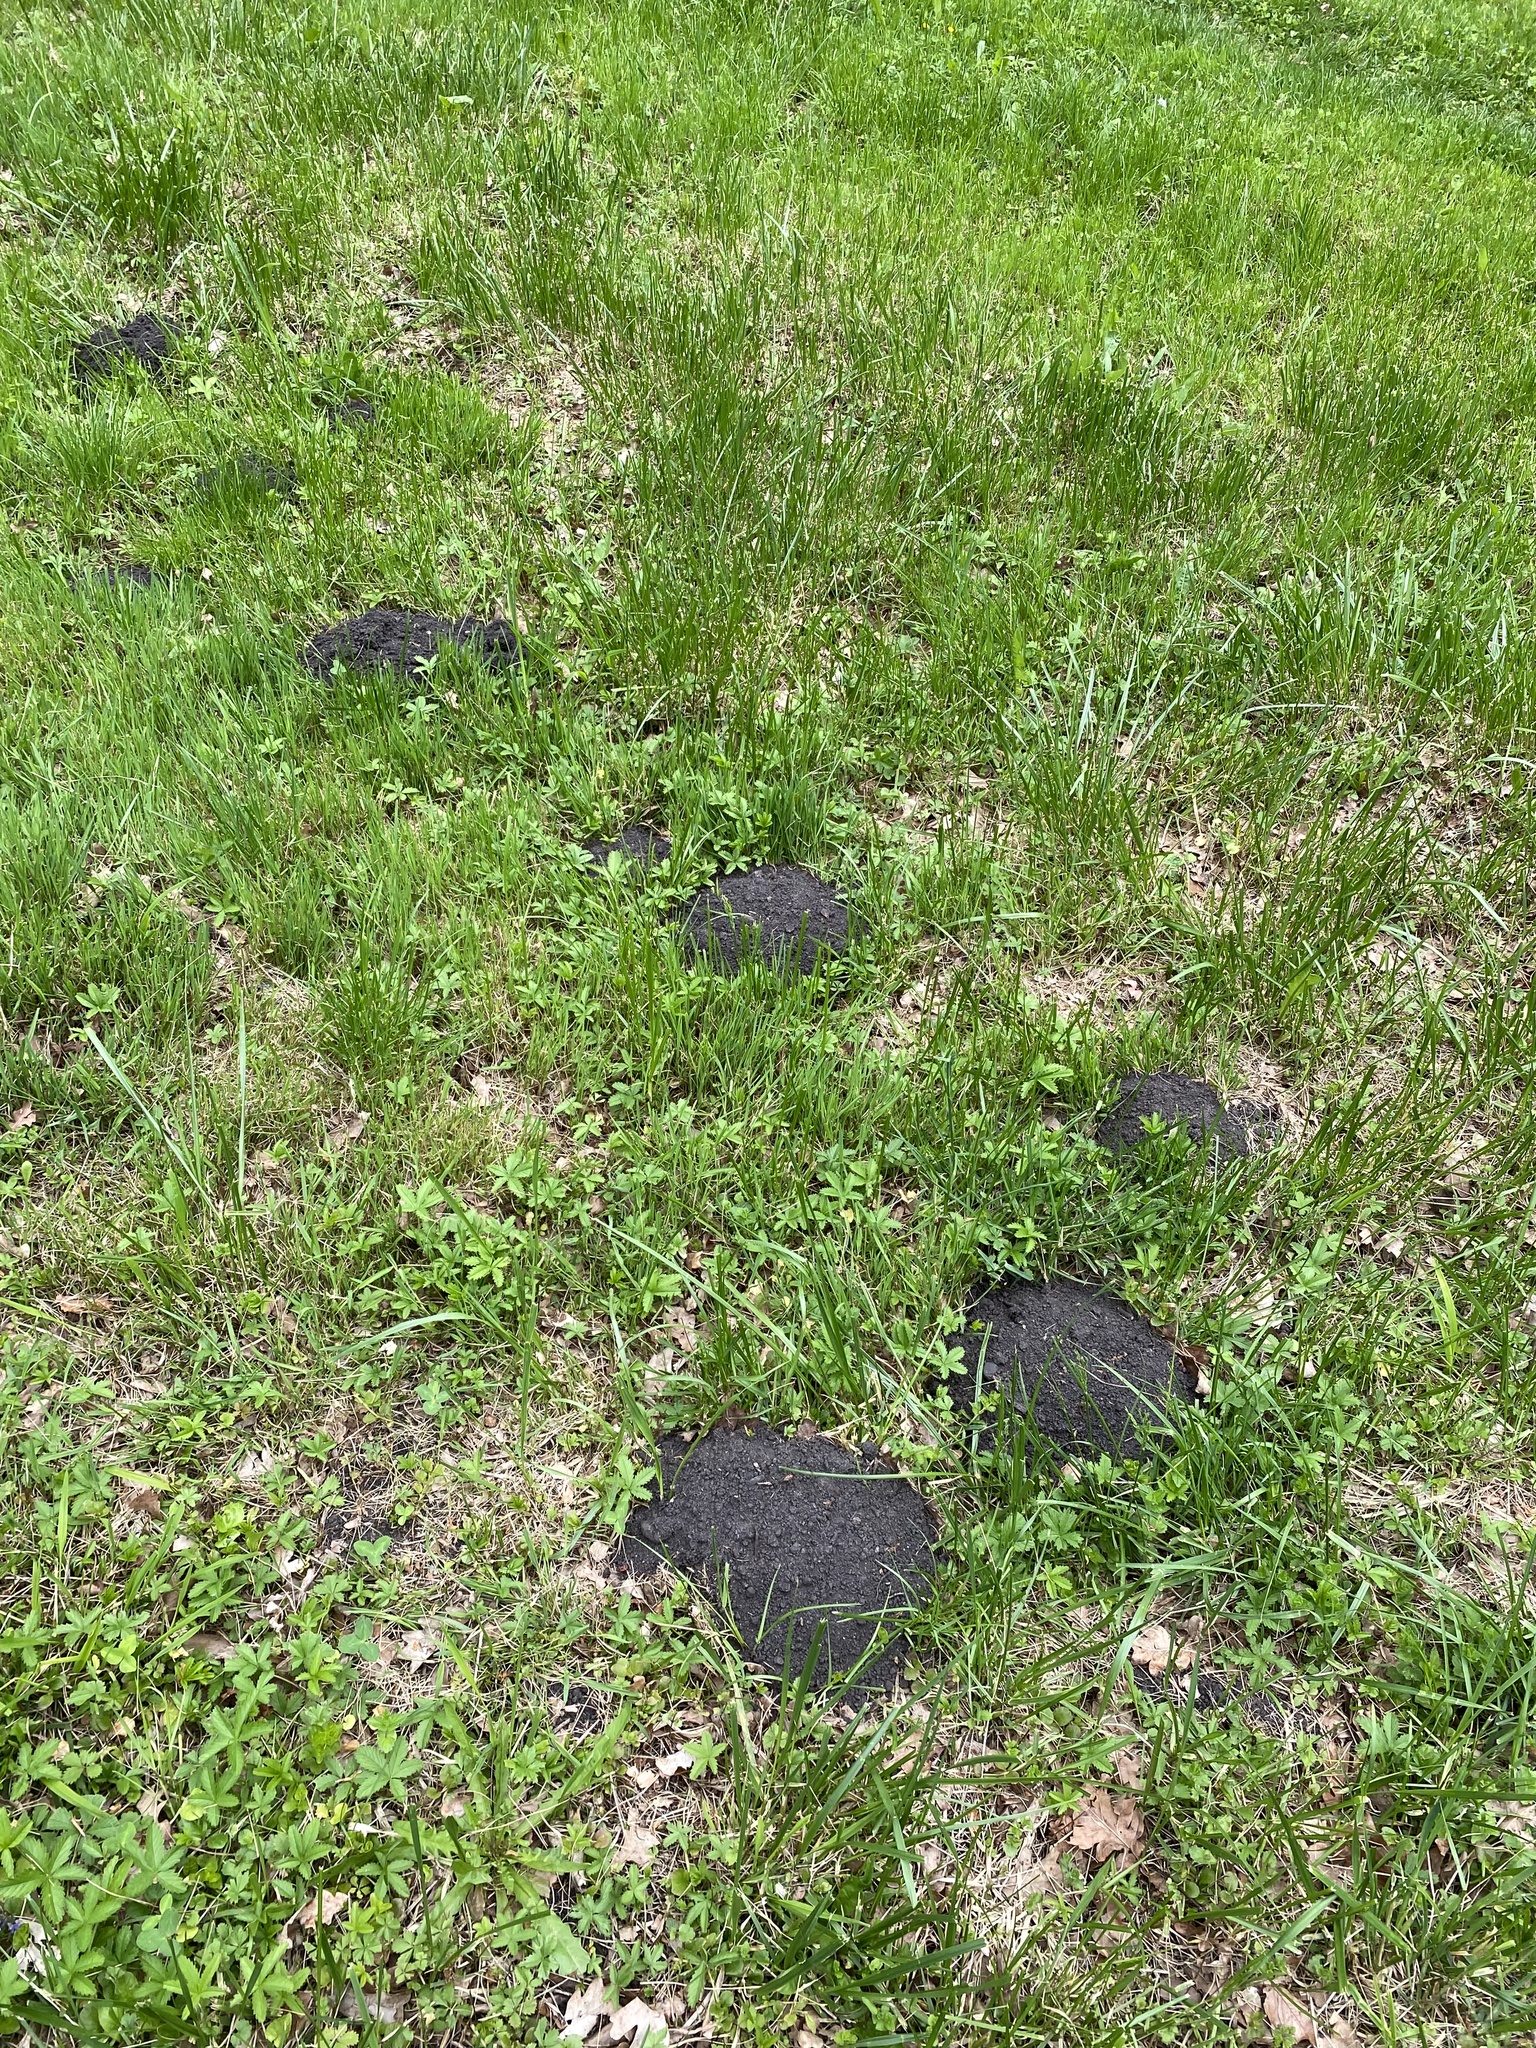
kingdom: Animalia
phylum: Chordata
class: Mammalia
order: Soricomorpha
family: Talpidae
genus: Talpa
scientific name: Talpa europaea
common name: European mole
